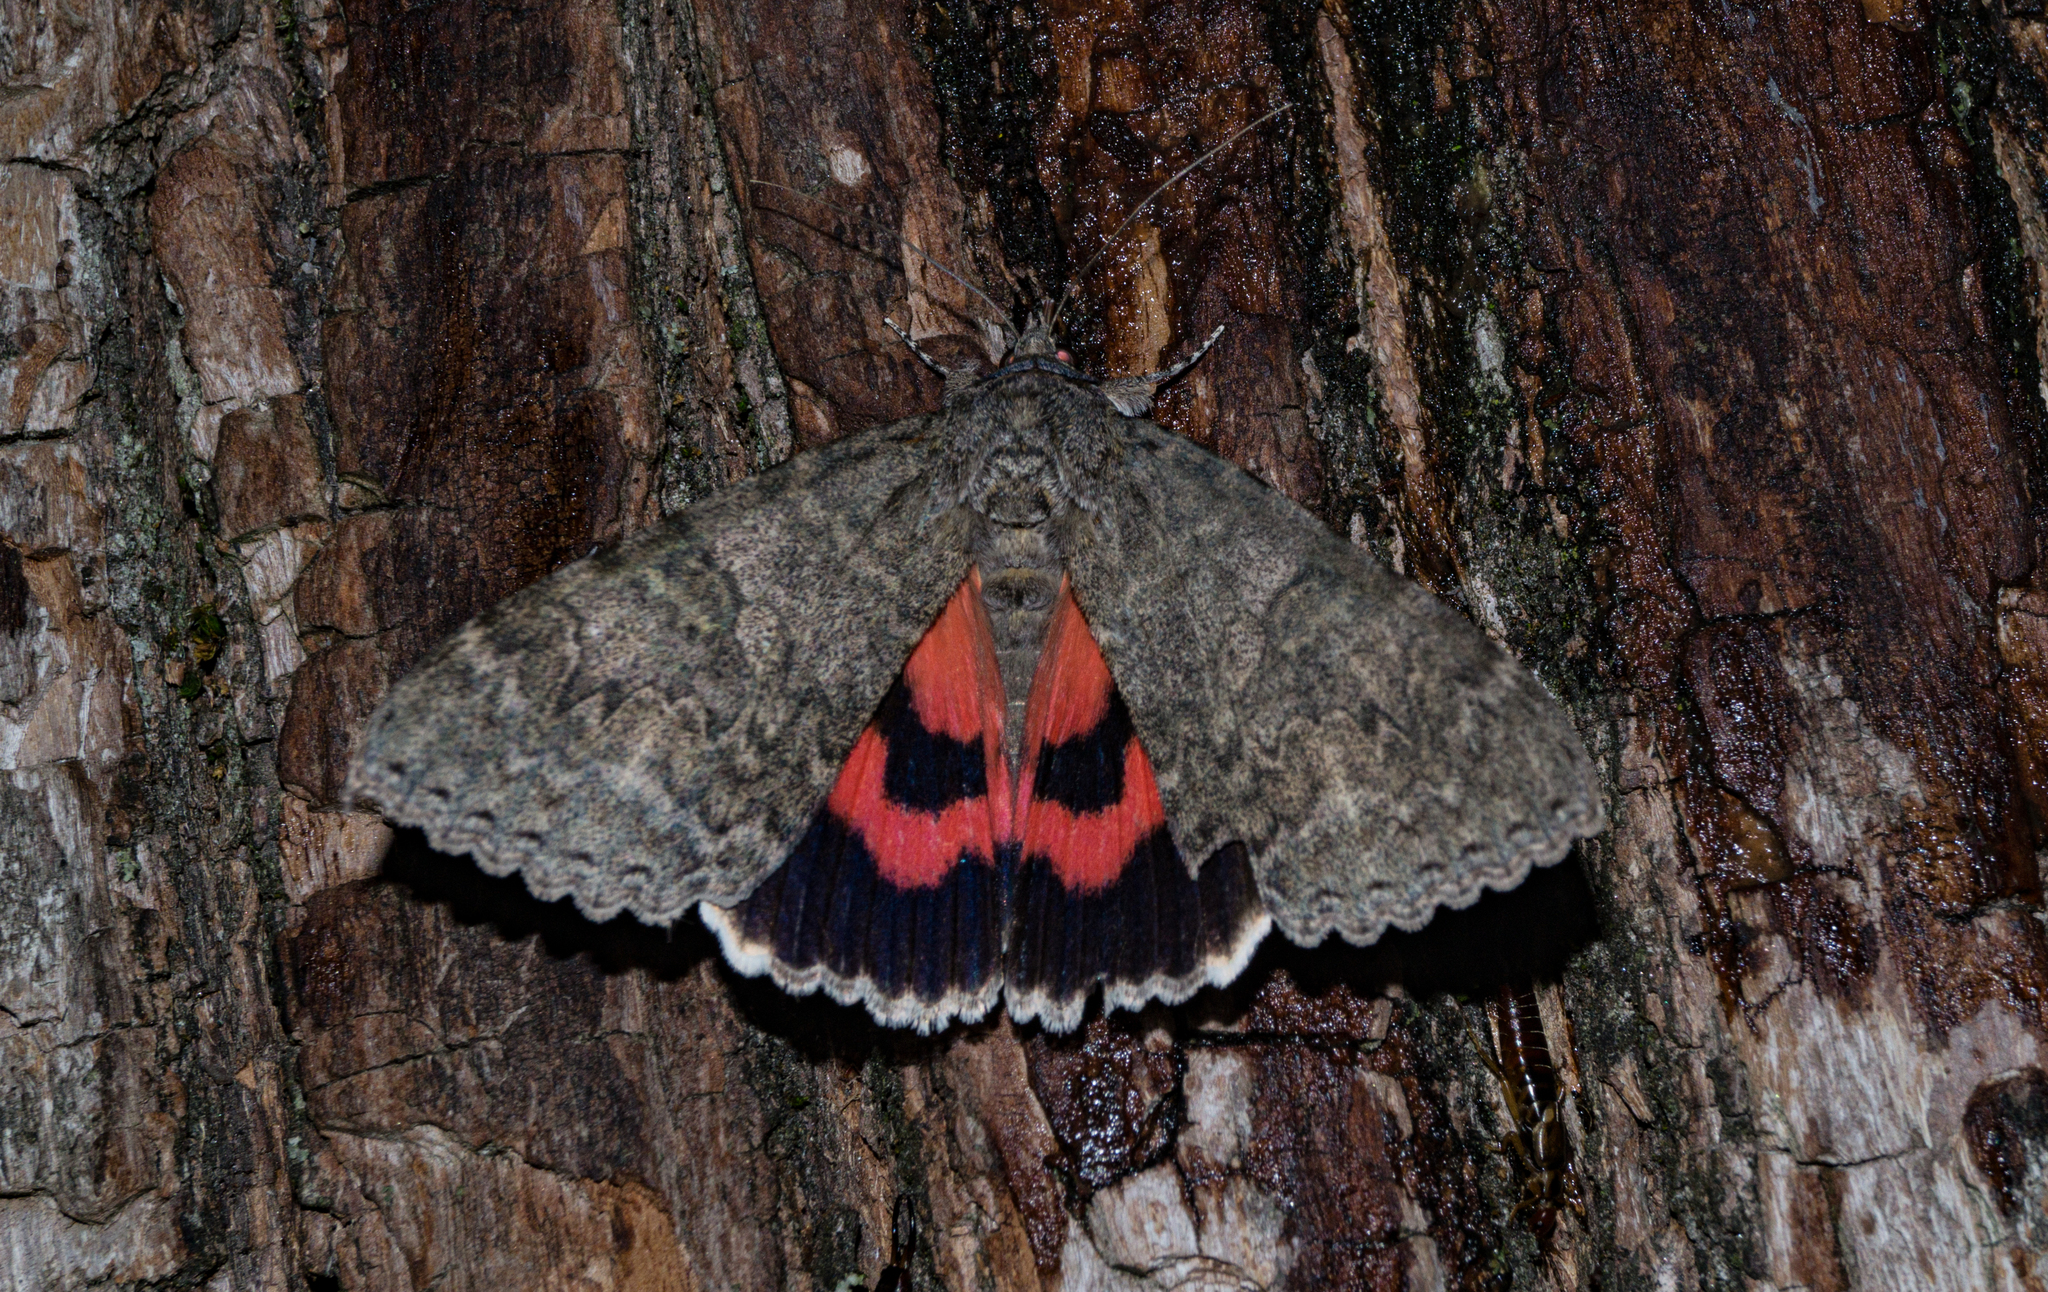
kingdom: Animalia
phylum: Arthropoda
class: Insecta
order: Lepidoptera
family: Erebidae
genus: Catocala
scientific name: Catocala nupta
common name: Red underwing
